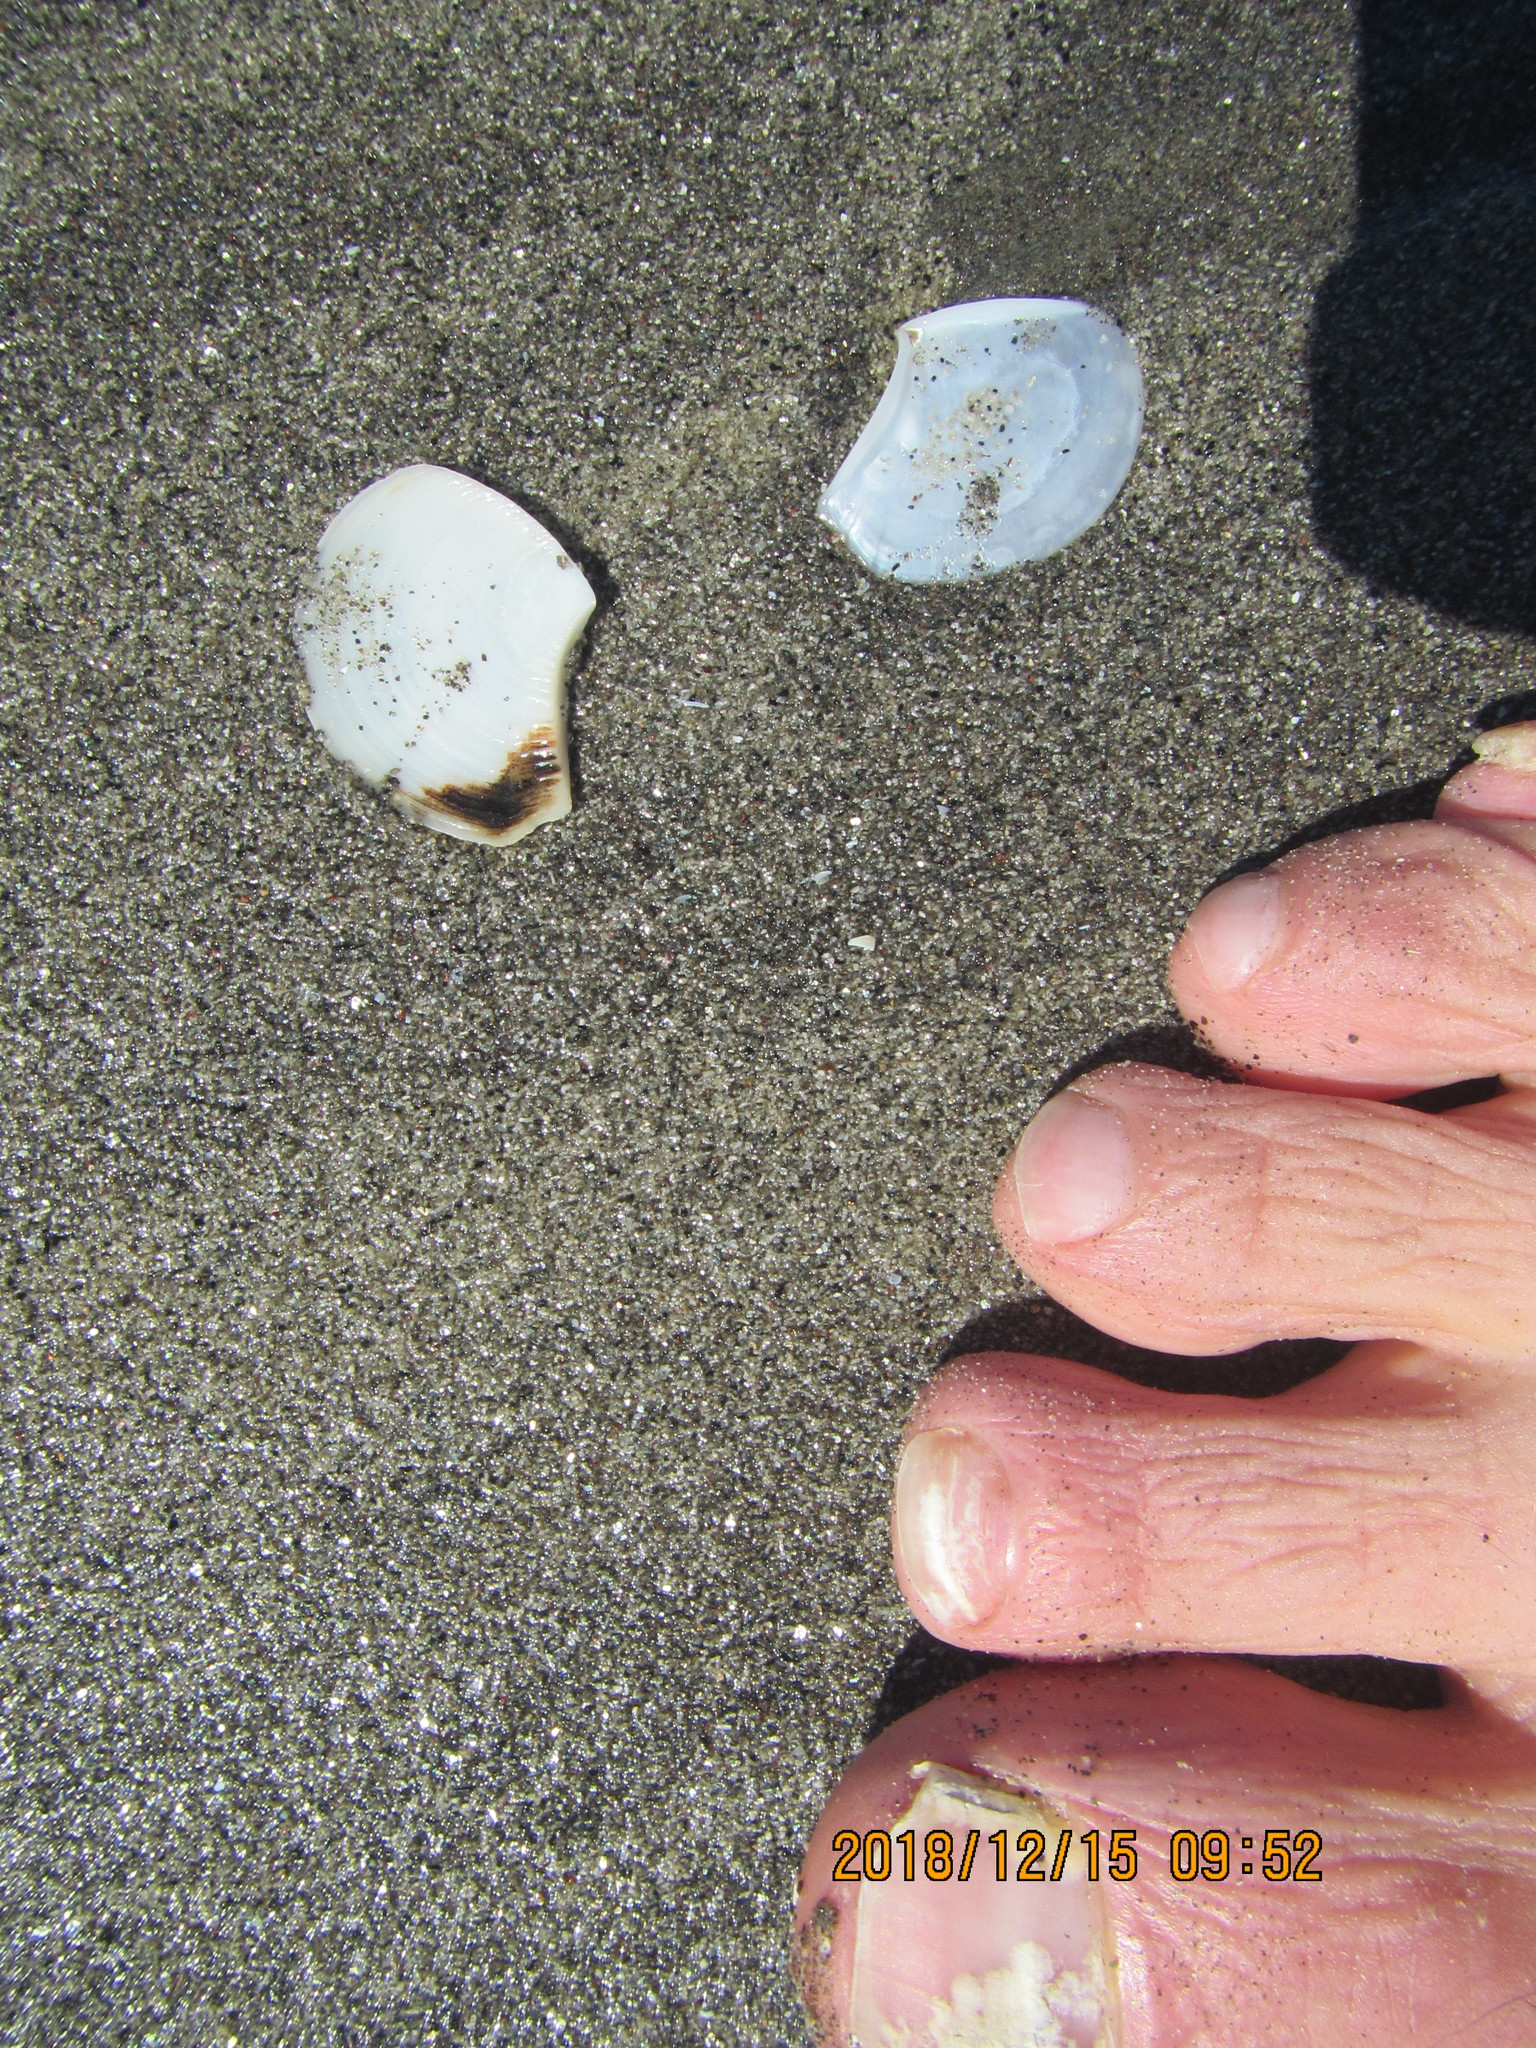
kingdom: Animalia
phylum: Mollusca
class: Bivalvia
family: Myochamidae
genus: Myadora
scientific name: Myadora striata
